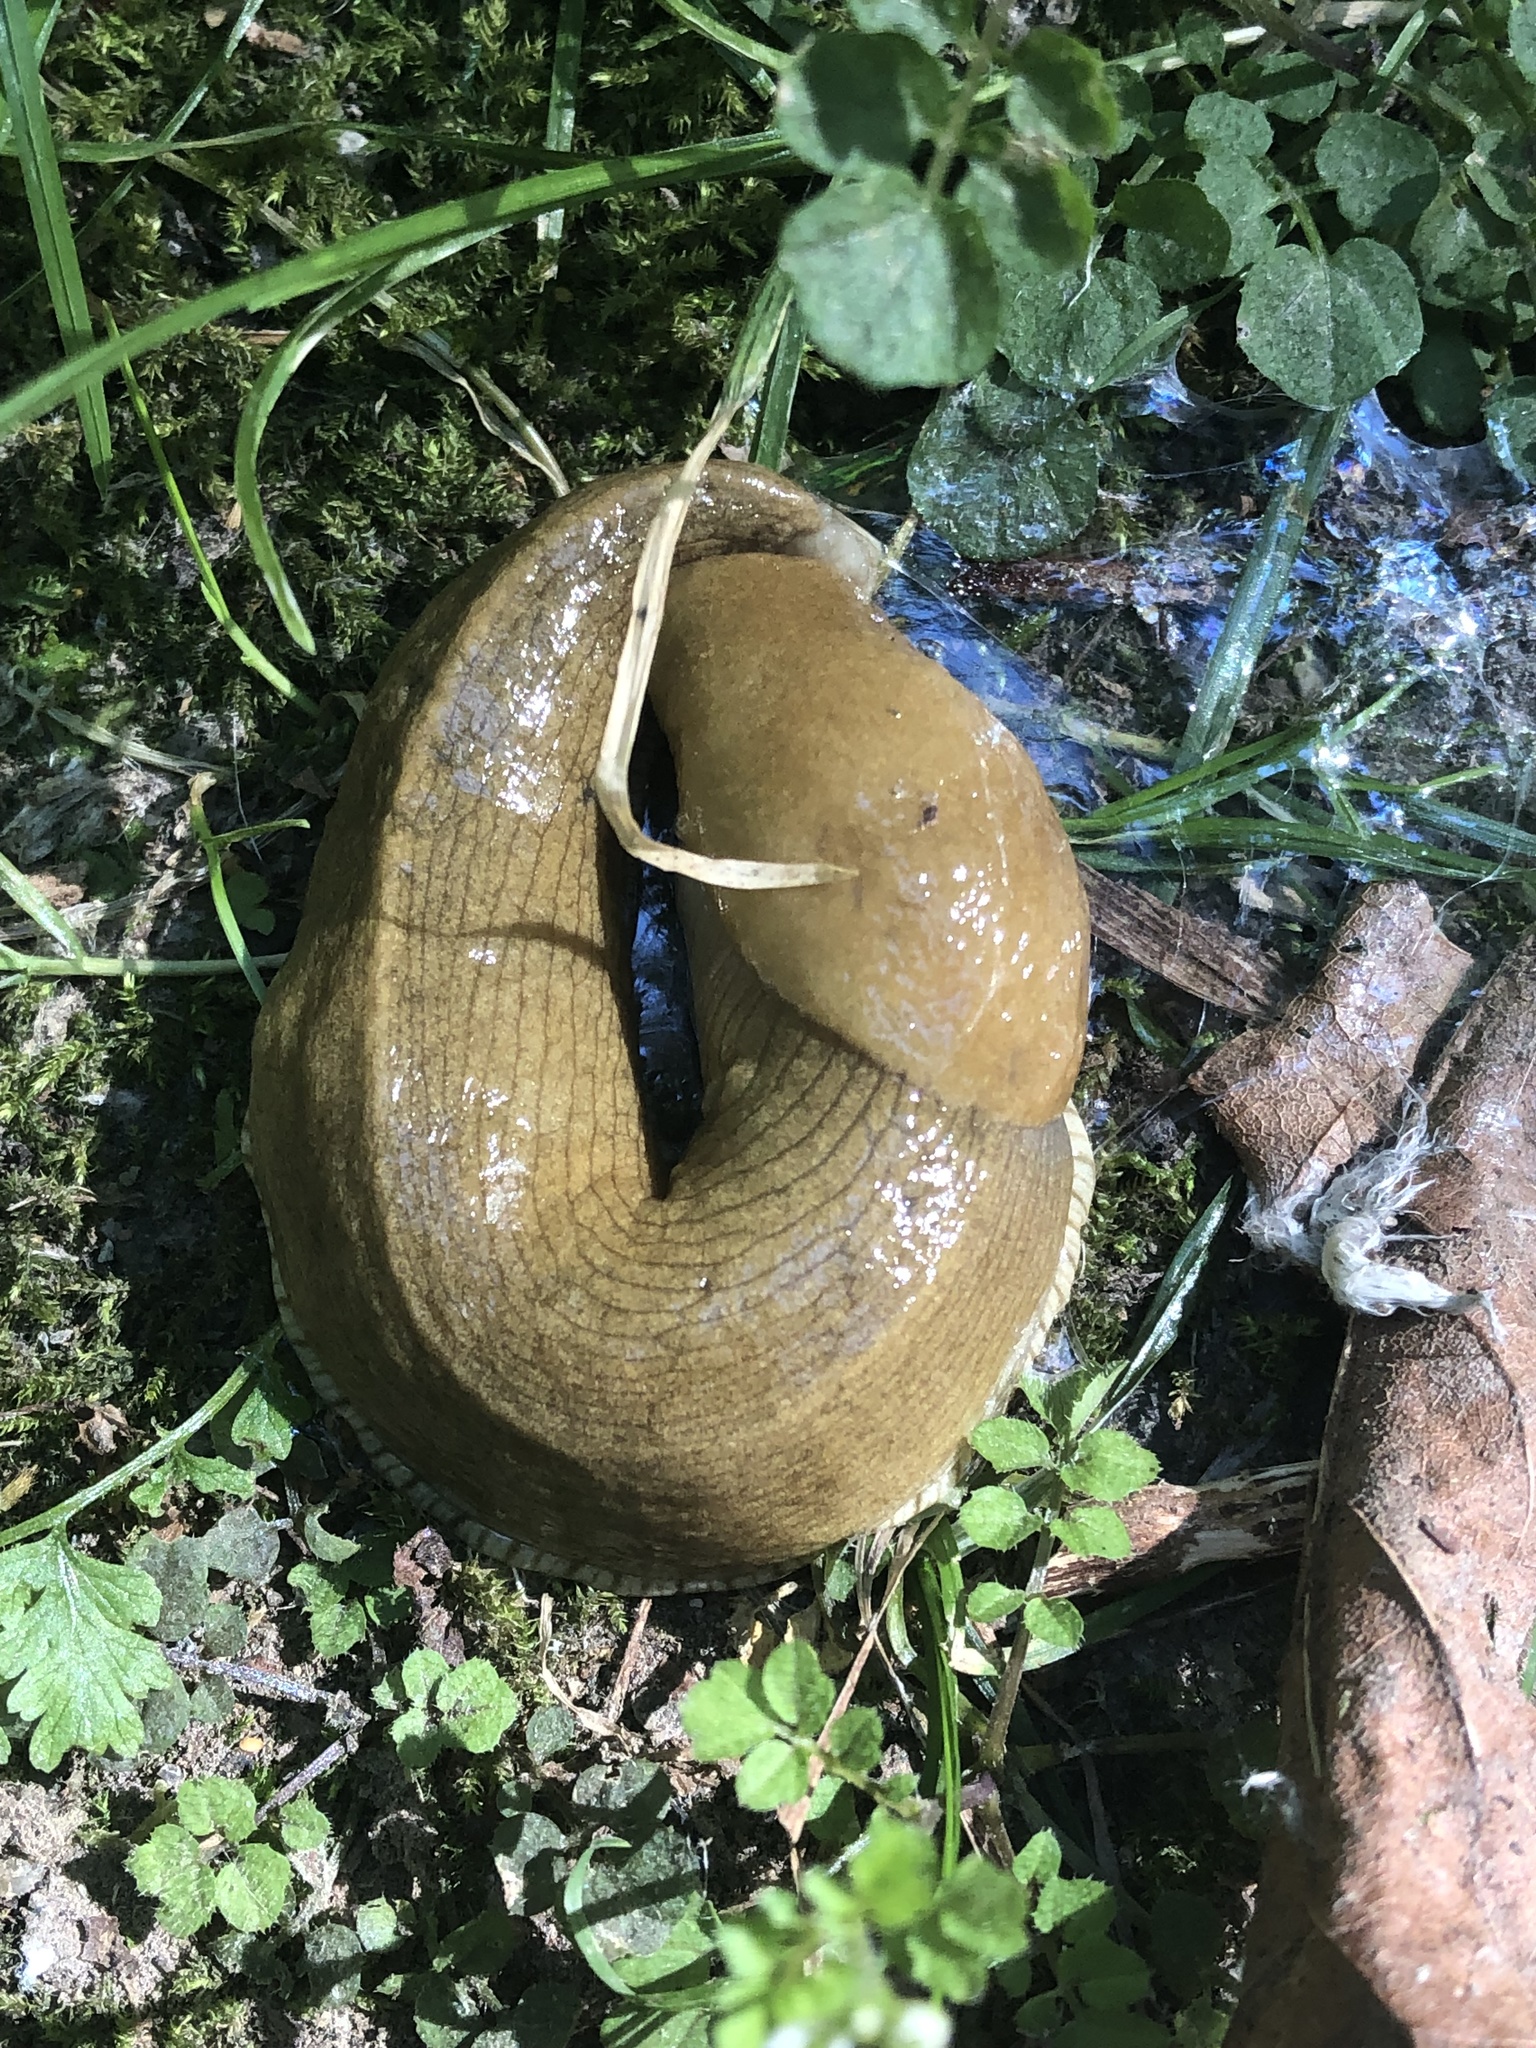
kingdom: Animalia
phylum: Mollusca
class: Gastropoda
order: Stylommatophora
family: Ariolimacidae
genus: Ariolimax
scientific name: Ariolimax columbianus
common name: Pacific banana slug
